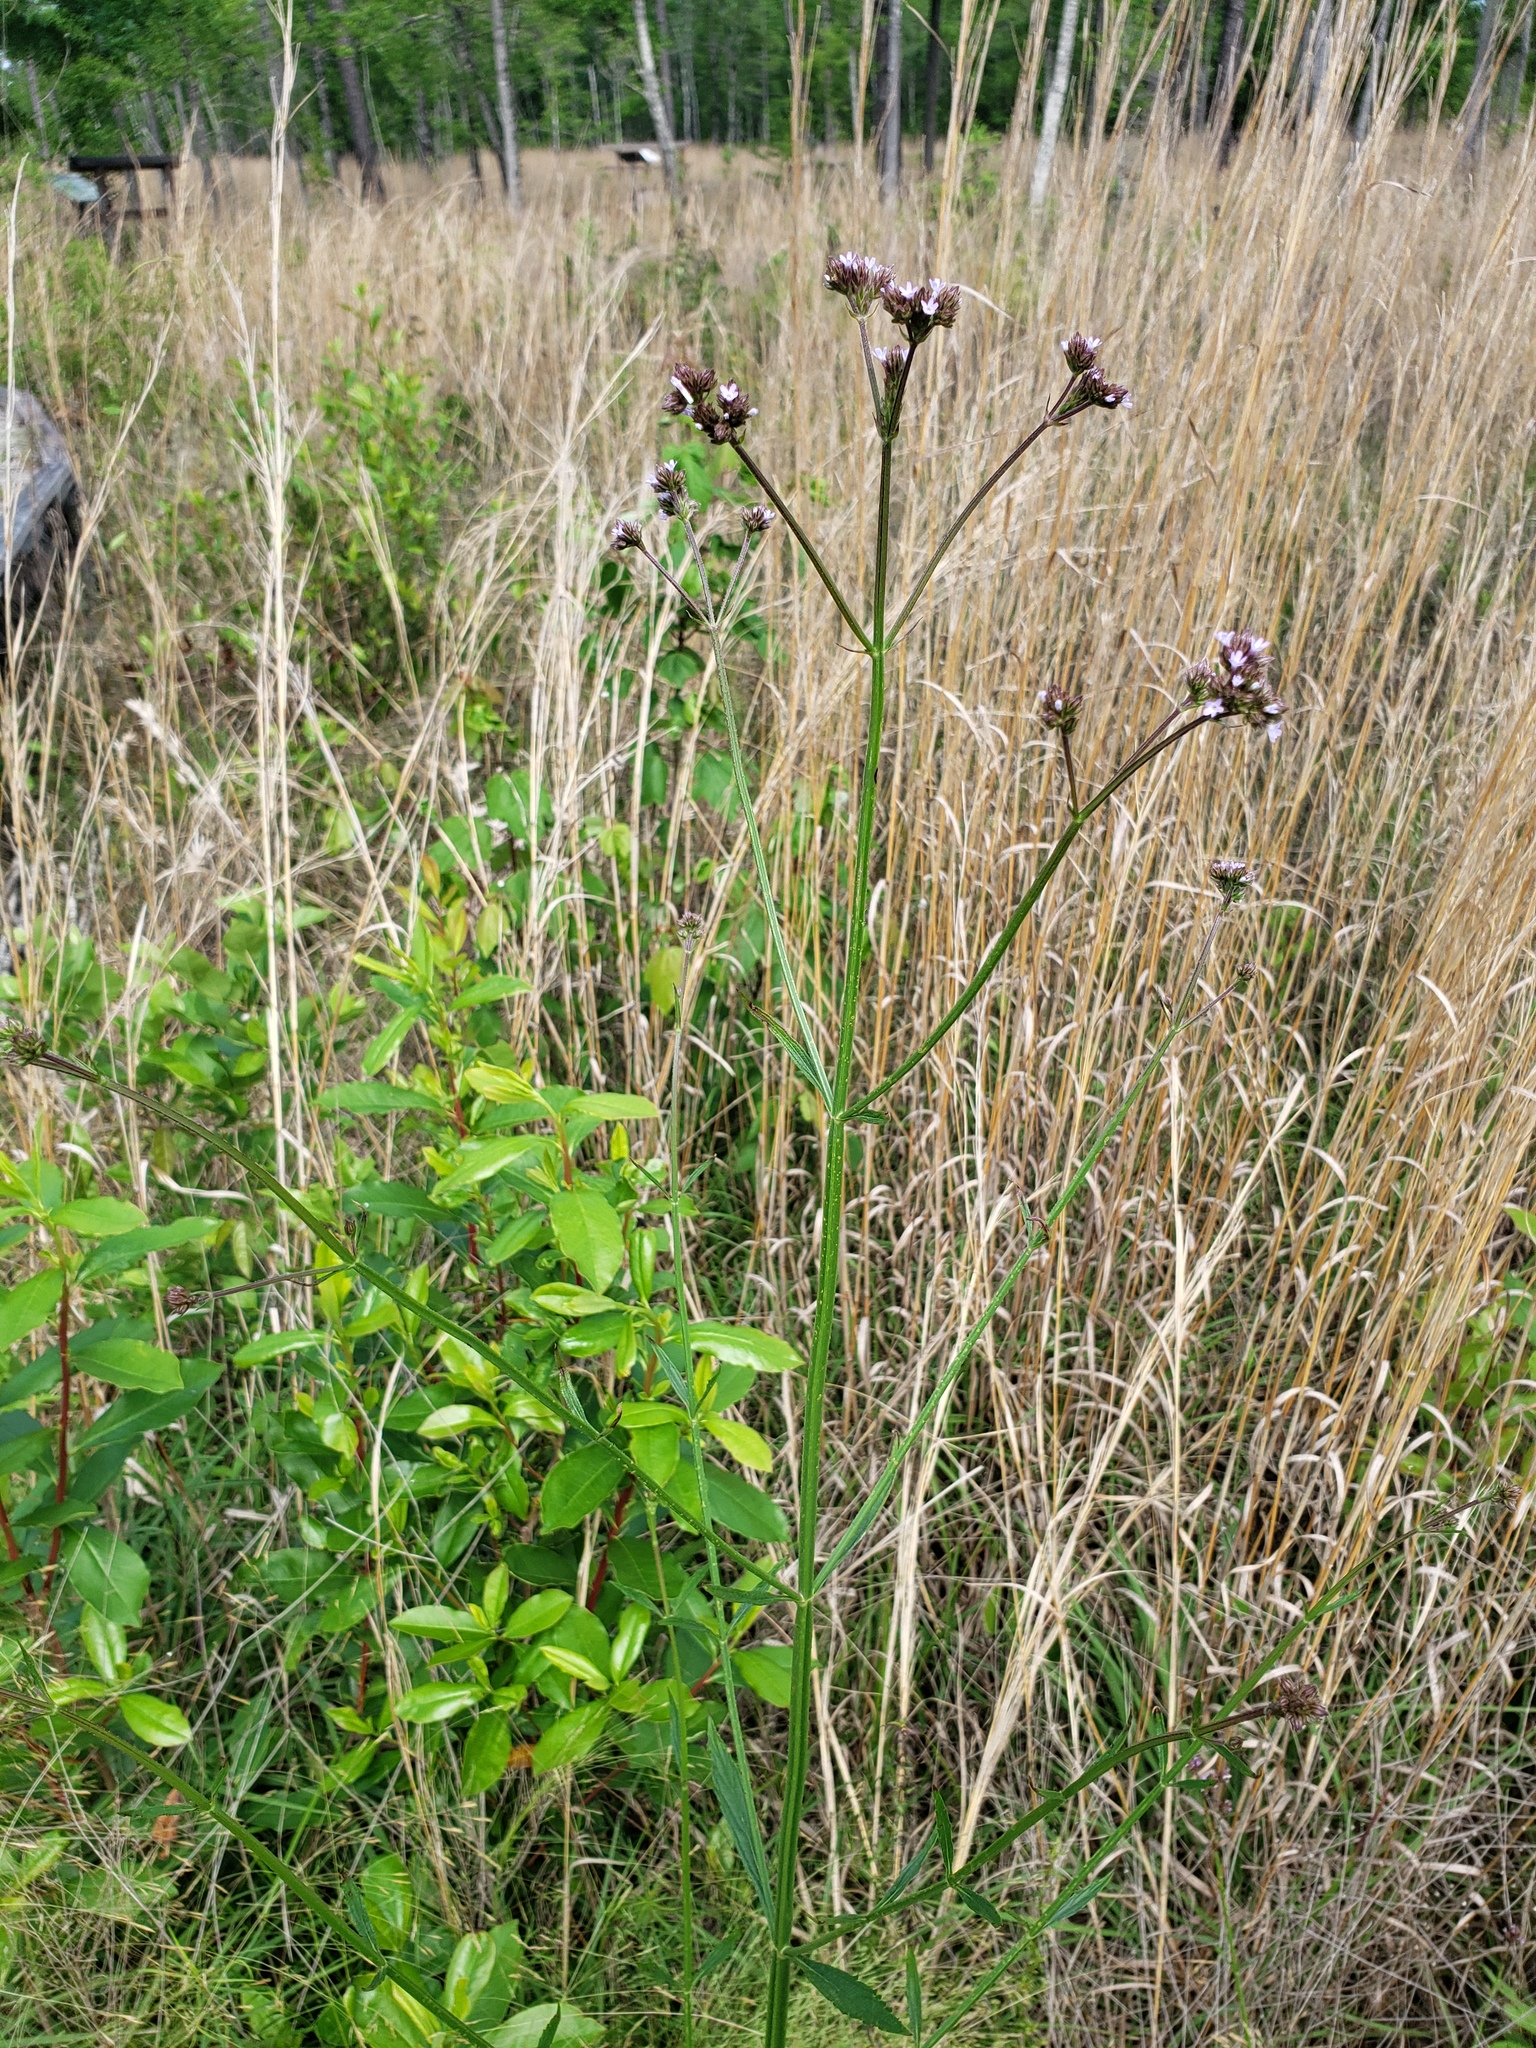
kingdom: Plantae
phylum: Tracheophyta
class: Magnoliopsida
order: Lamiales
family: Verbenaceae
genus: Verbena
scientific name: Verbena brasiliensis
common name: Brazilian vervain
